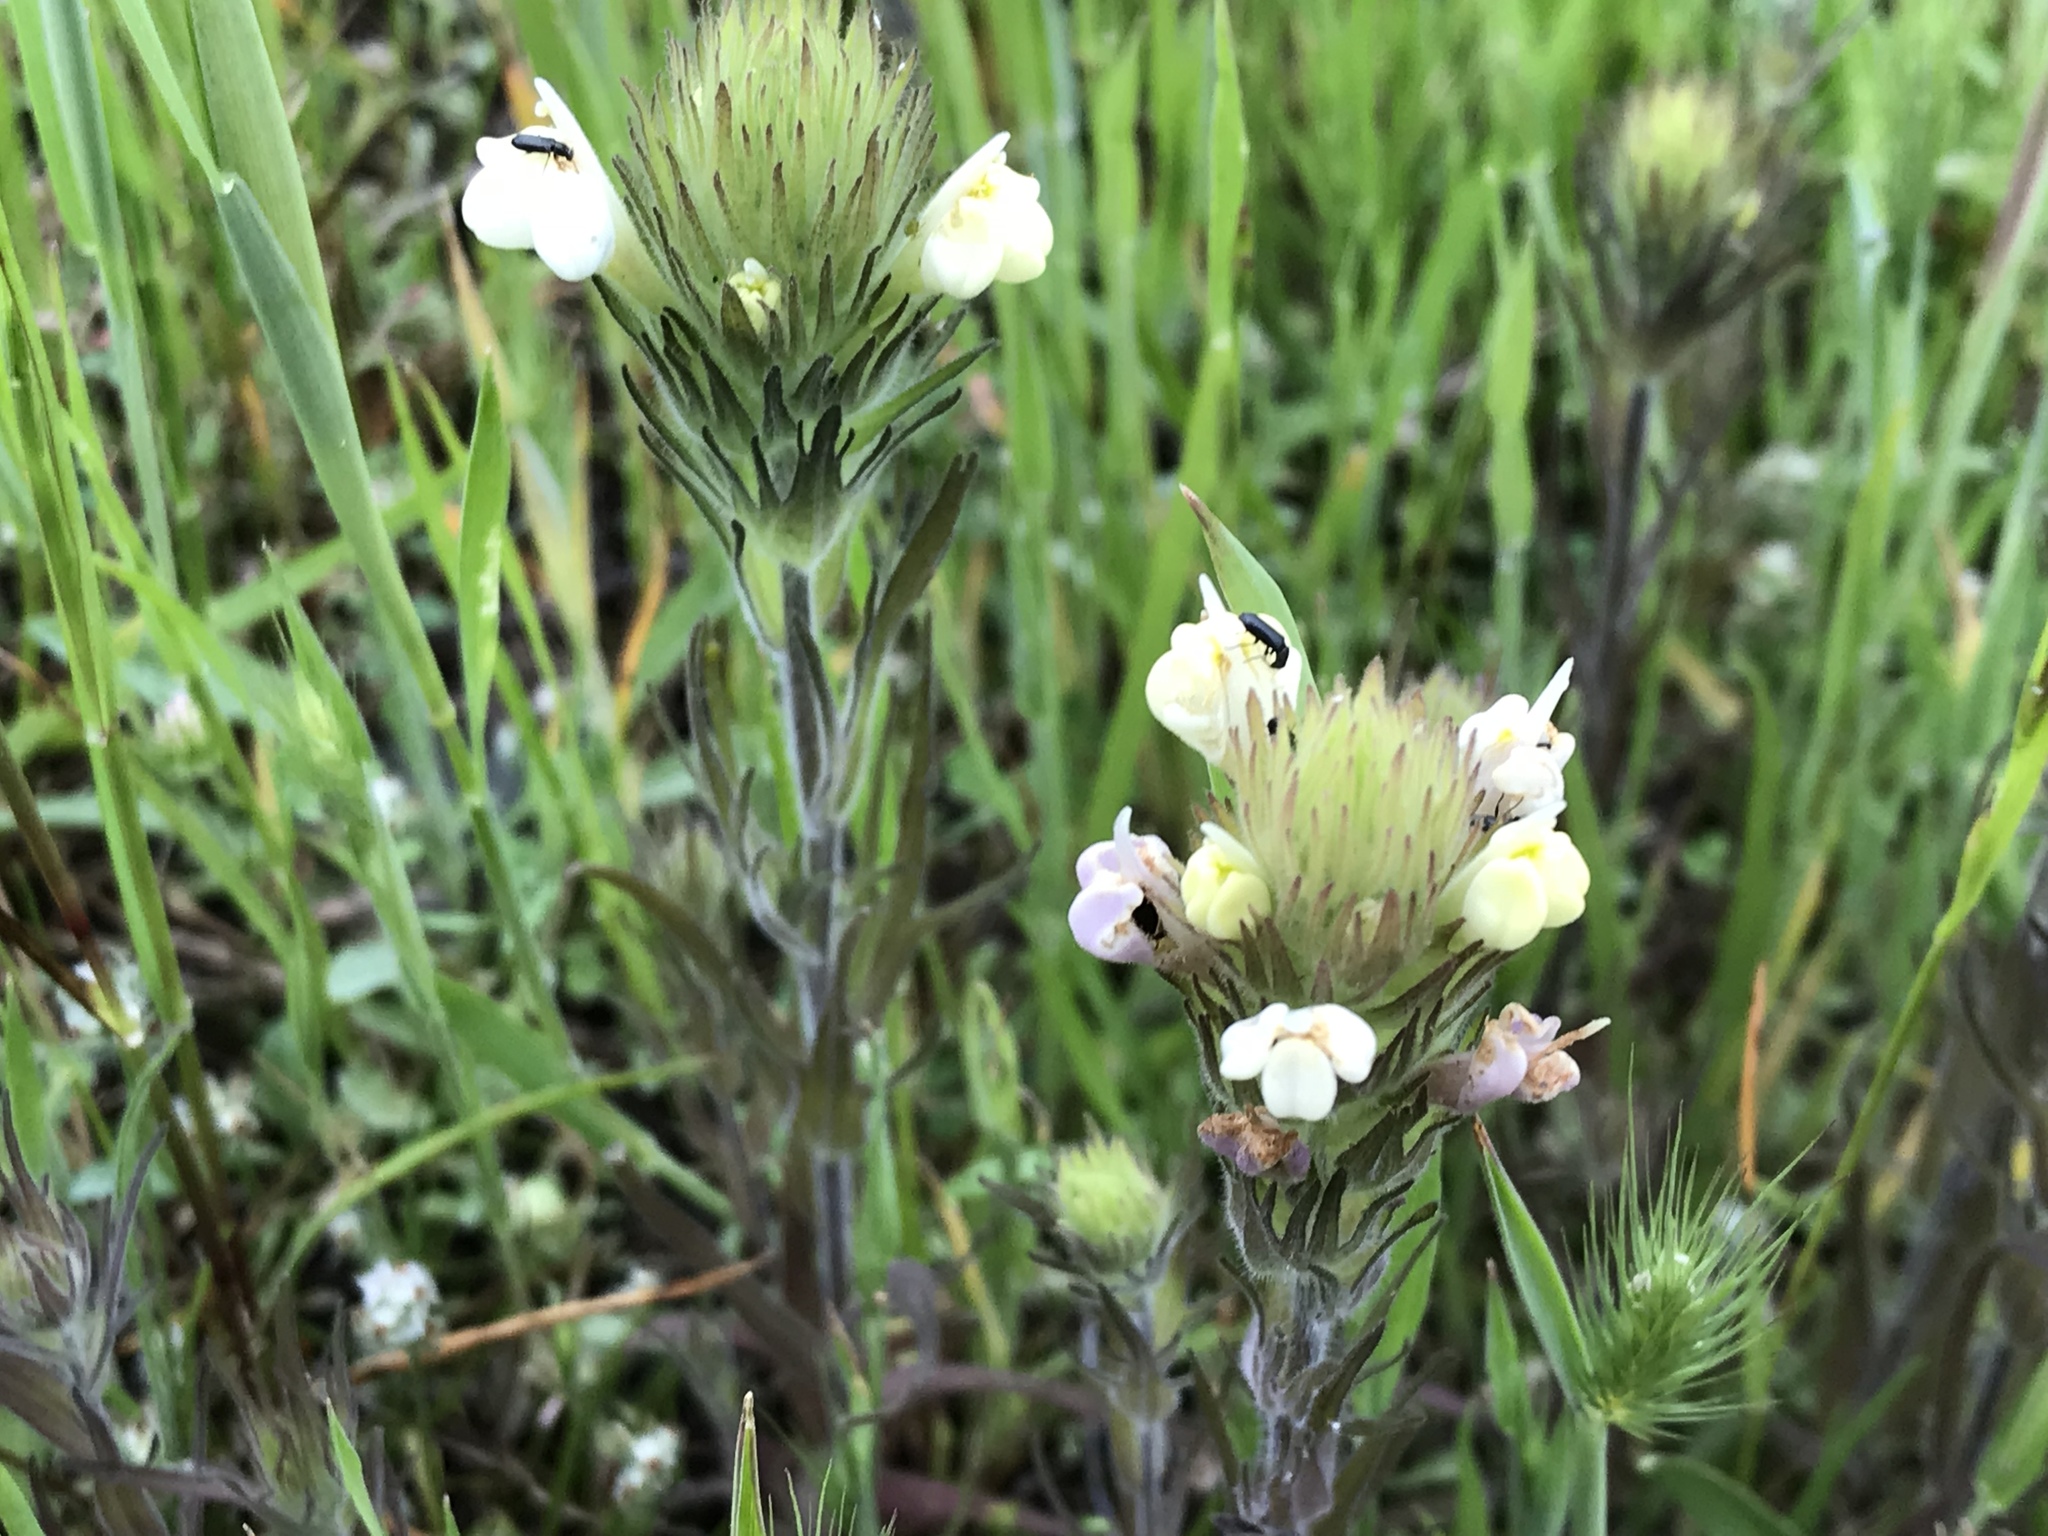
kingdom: Plantae
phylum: Tracheophyta
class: Magnoliopsida
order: Lamiales
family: Orobanchaceae
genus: Castilleja
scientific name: Castilleja rubicundula
